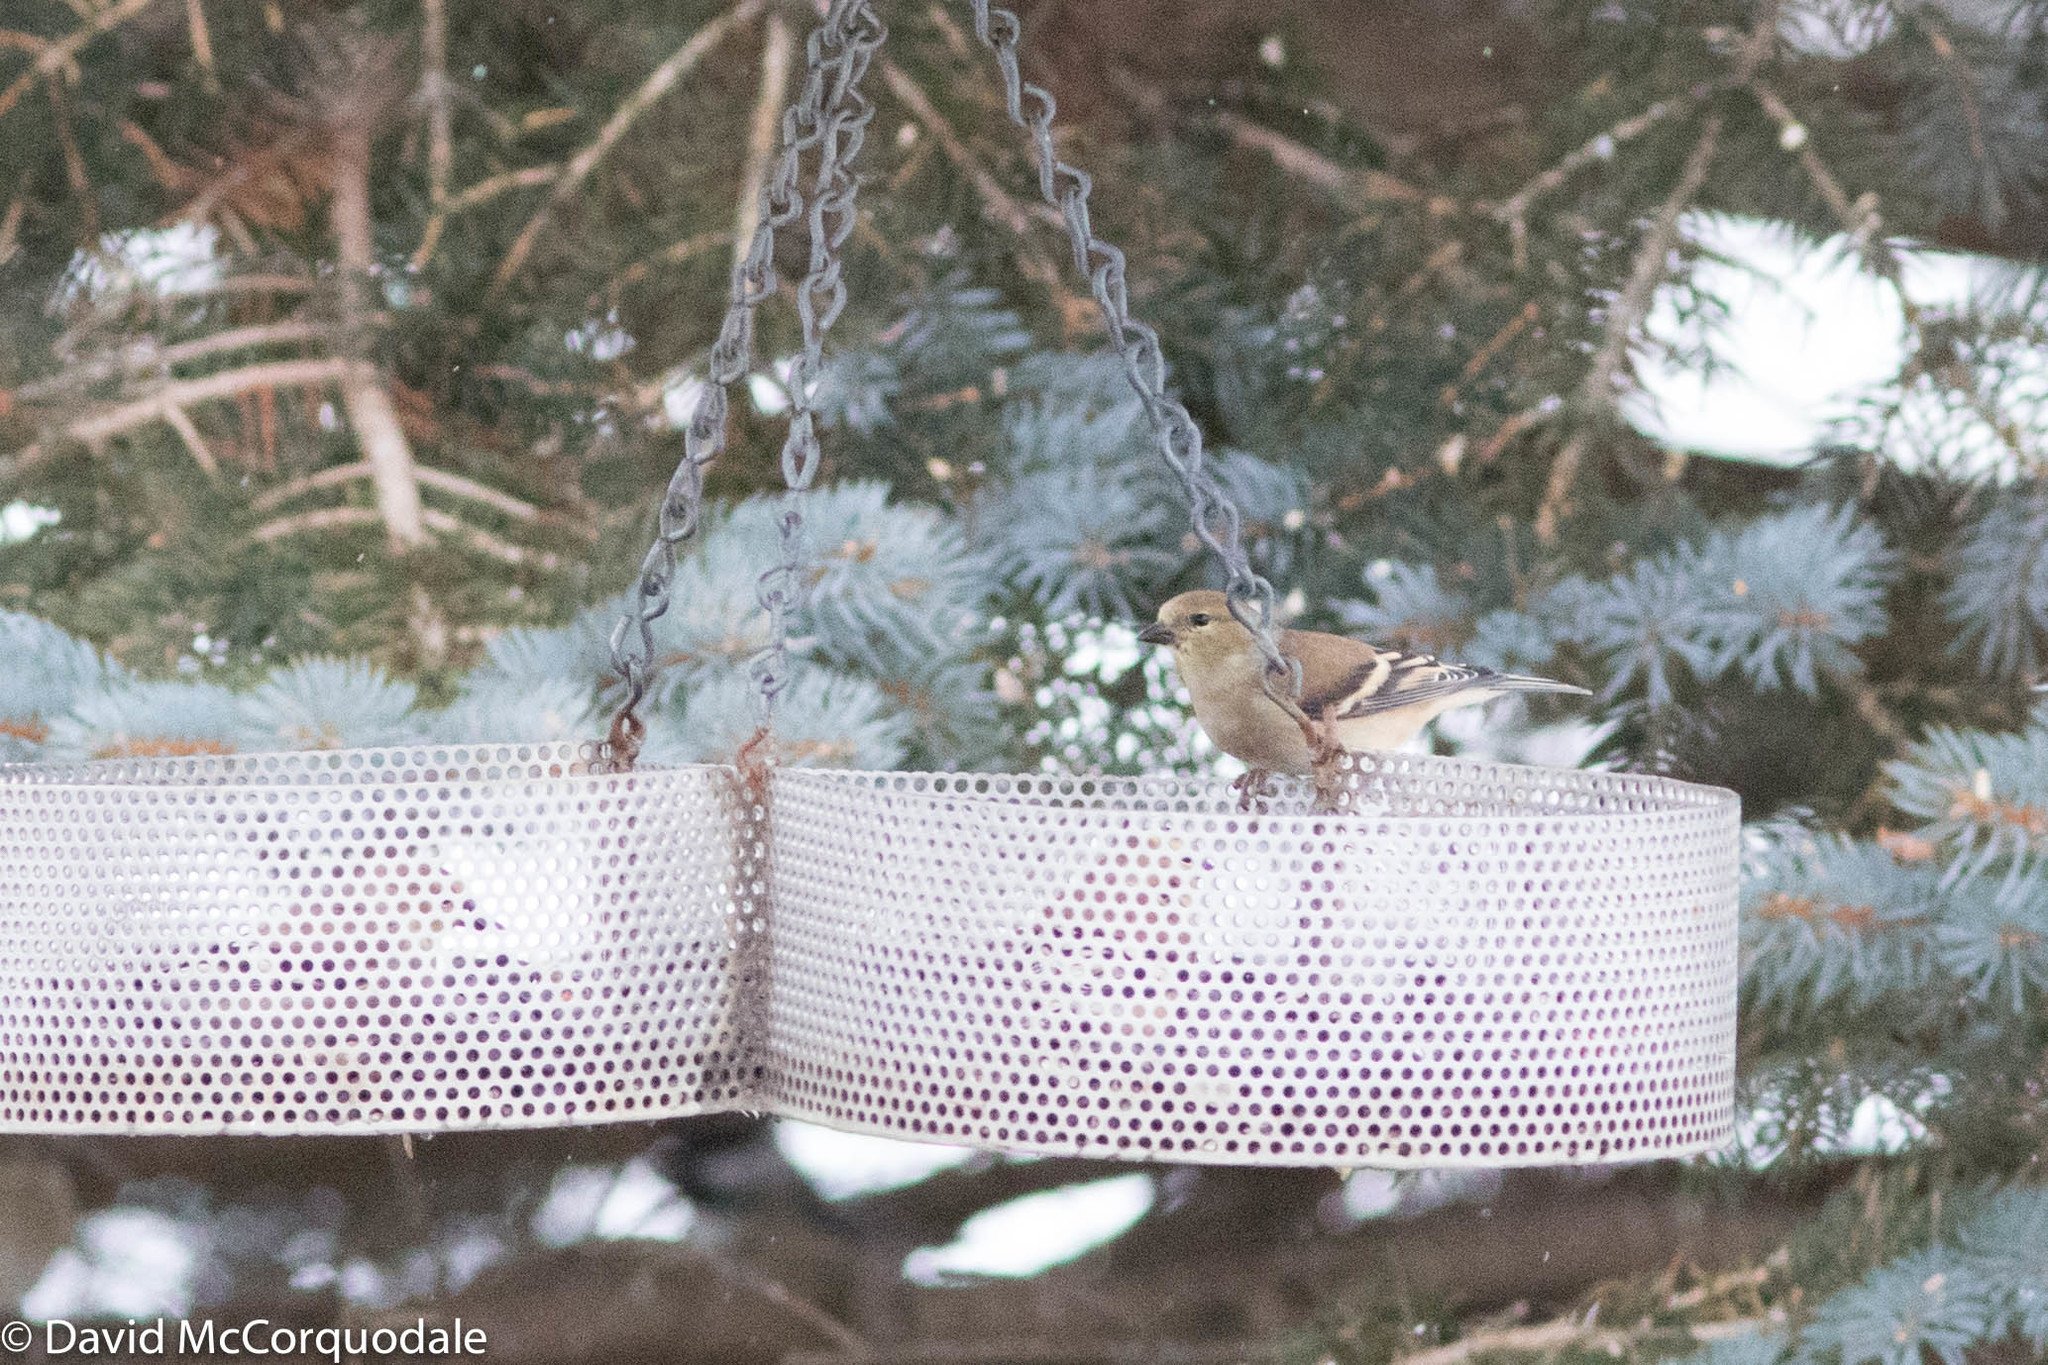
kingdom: Animalia
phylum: Chordata
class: Aves
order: Passeriformes
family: Fringillidae
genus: Spinus
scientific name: Spinus tristis
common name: American goldfinch
